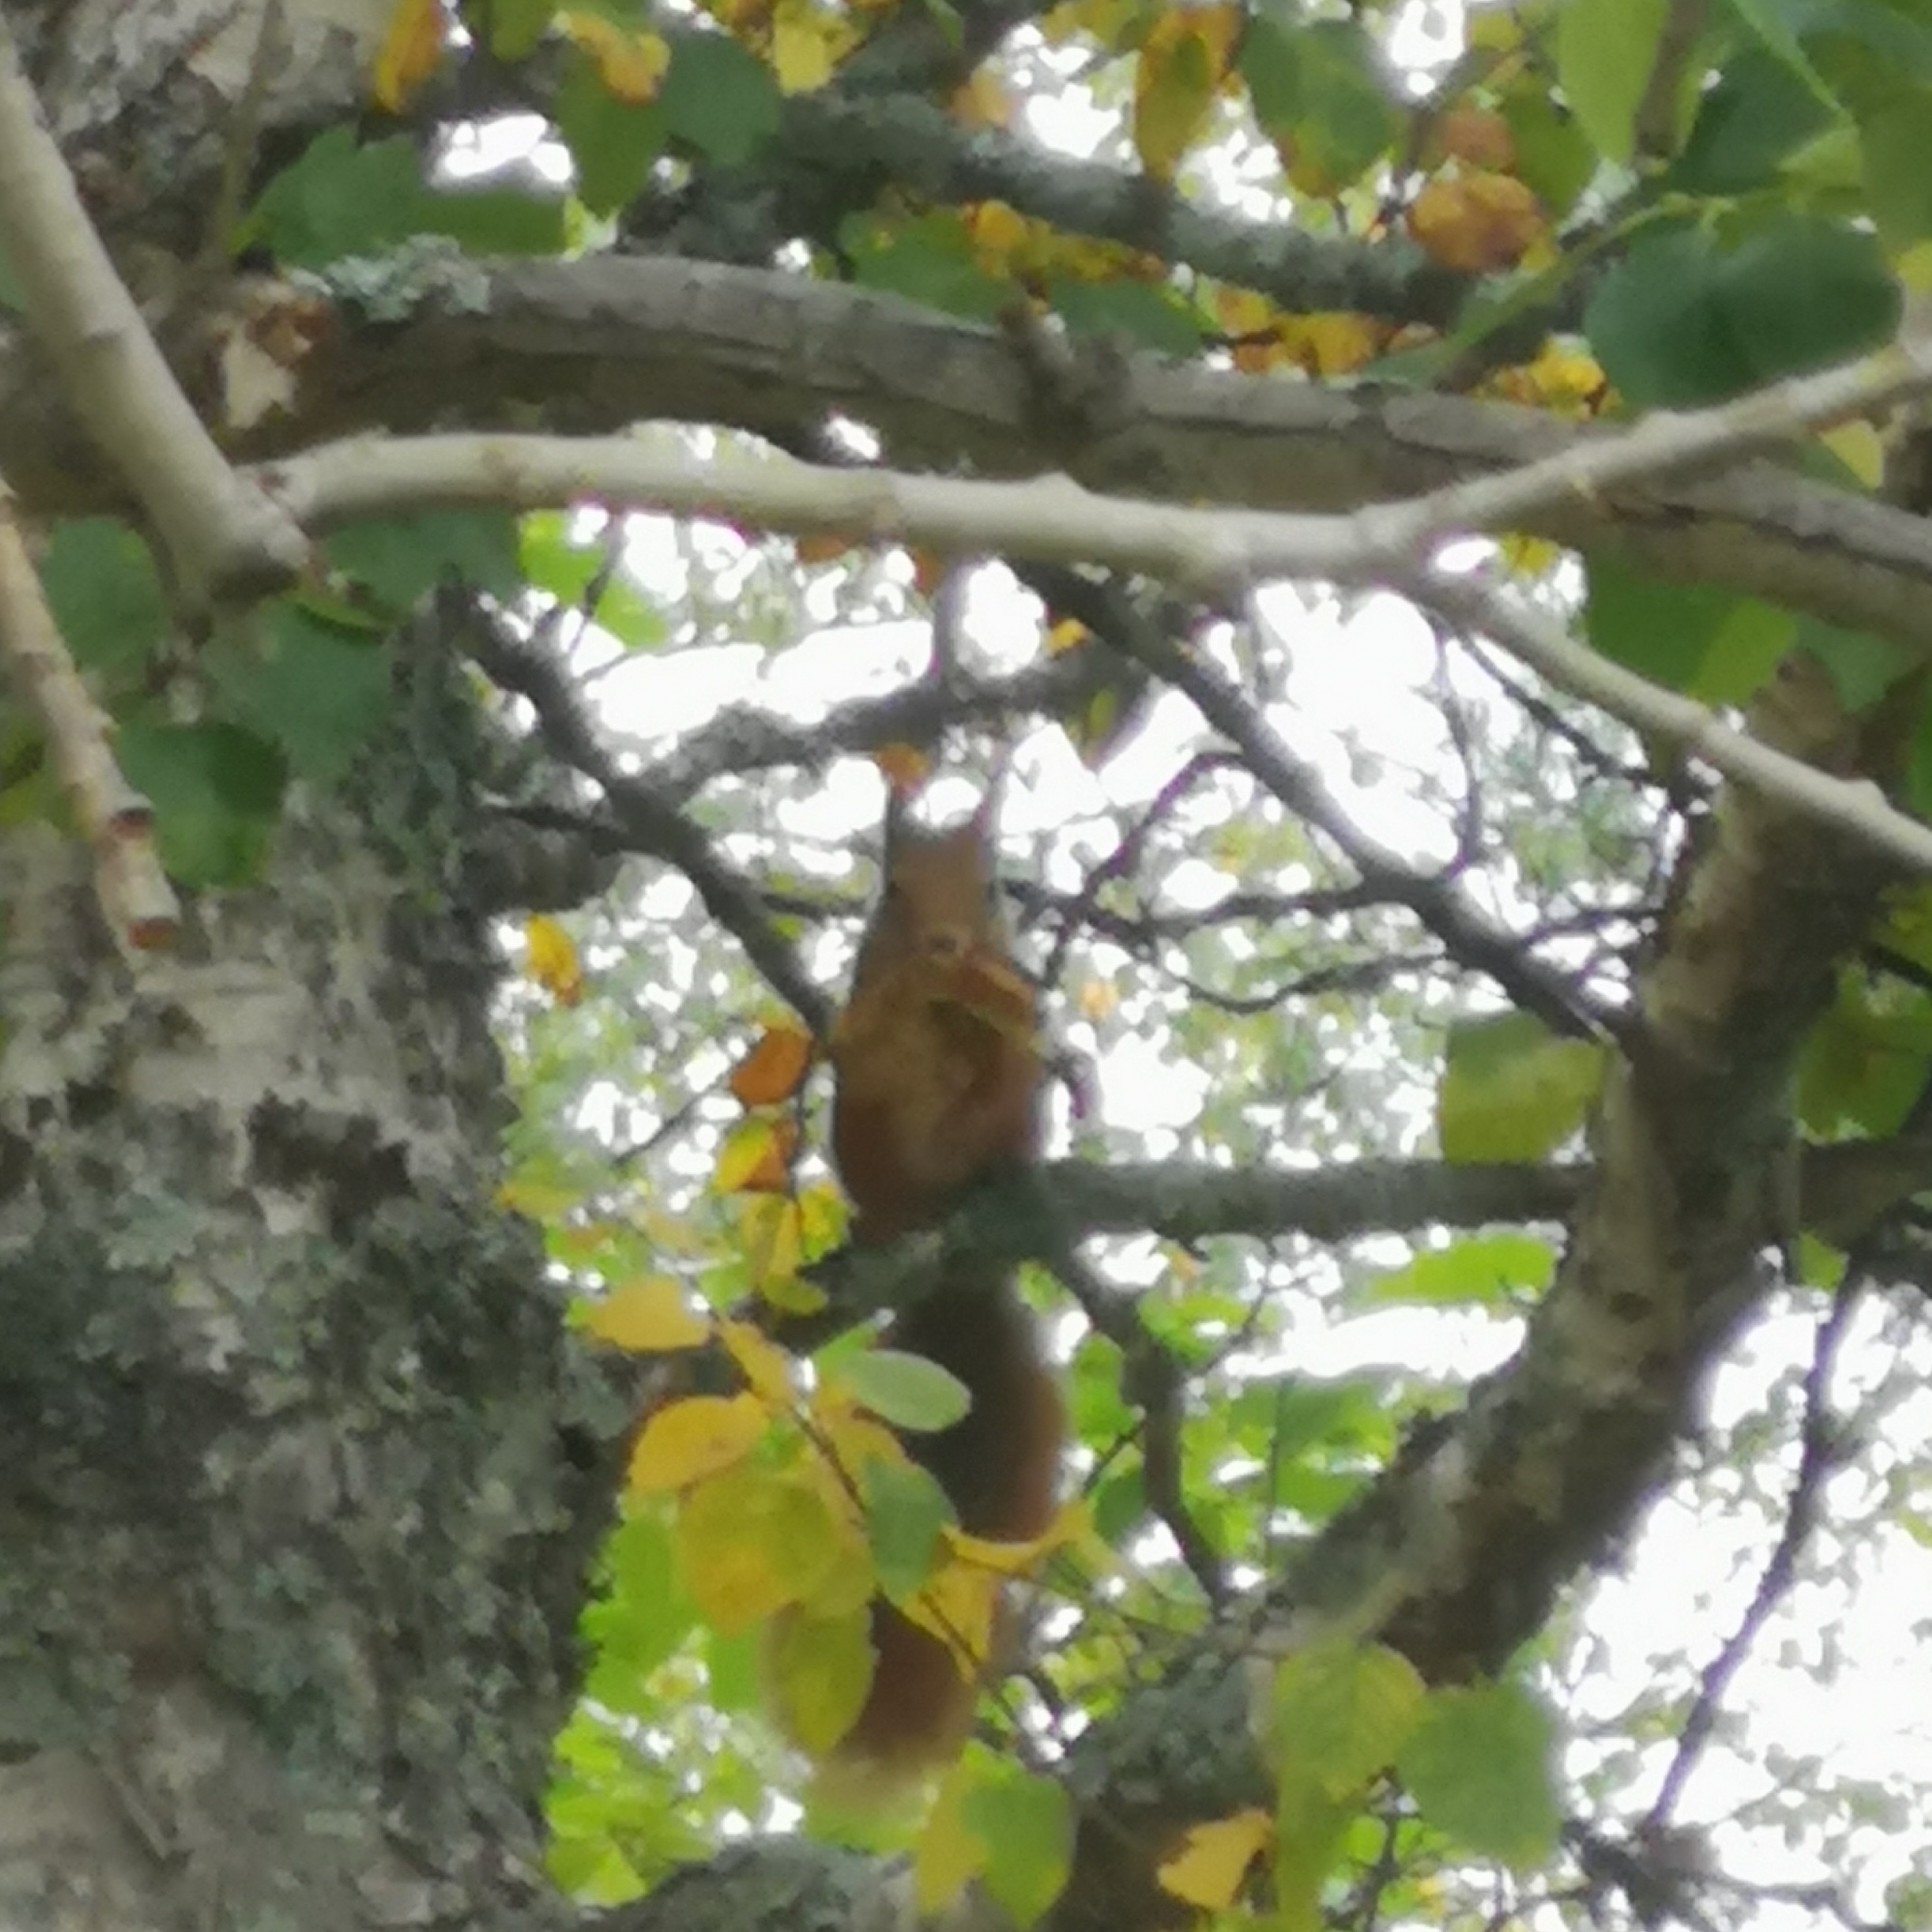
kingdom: Animalia
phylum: Chordata
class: Mammalia
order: Rodentia
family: Sciuridae
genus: Sciurus
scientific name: Sciurus vulgaris
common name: Eurasian red squirrel
